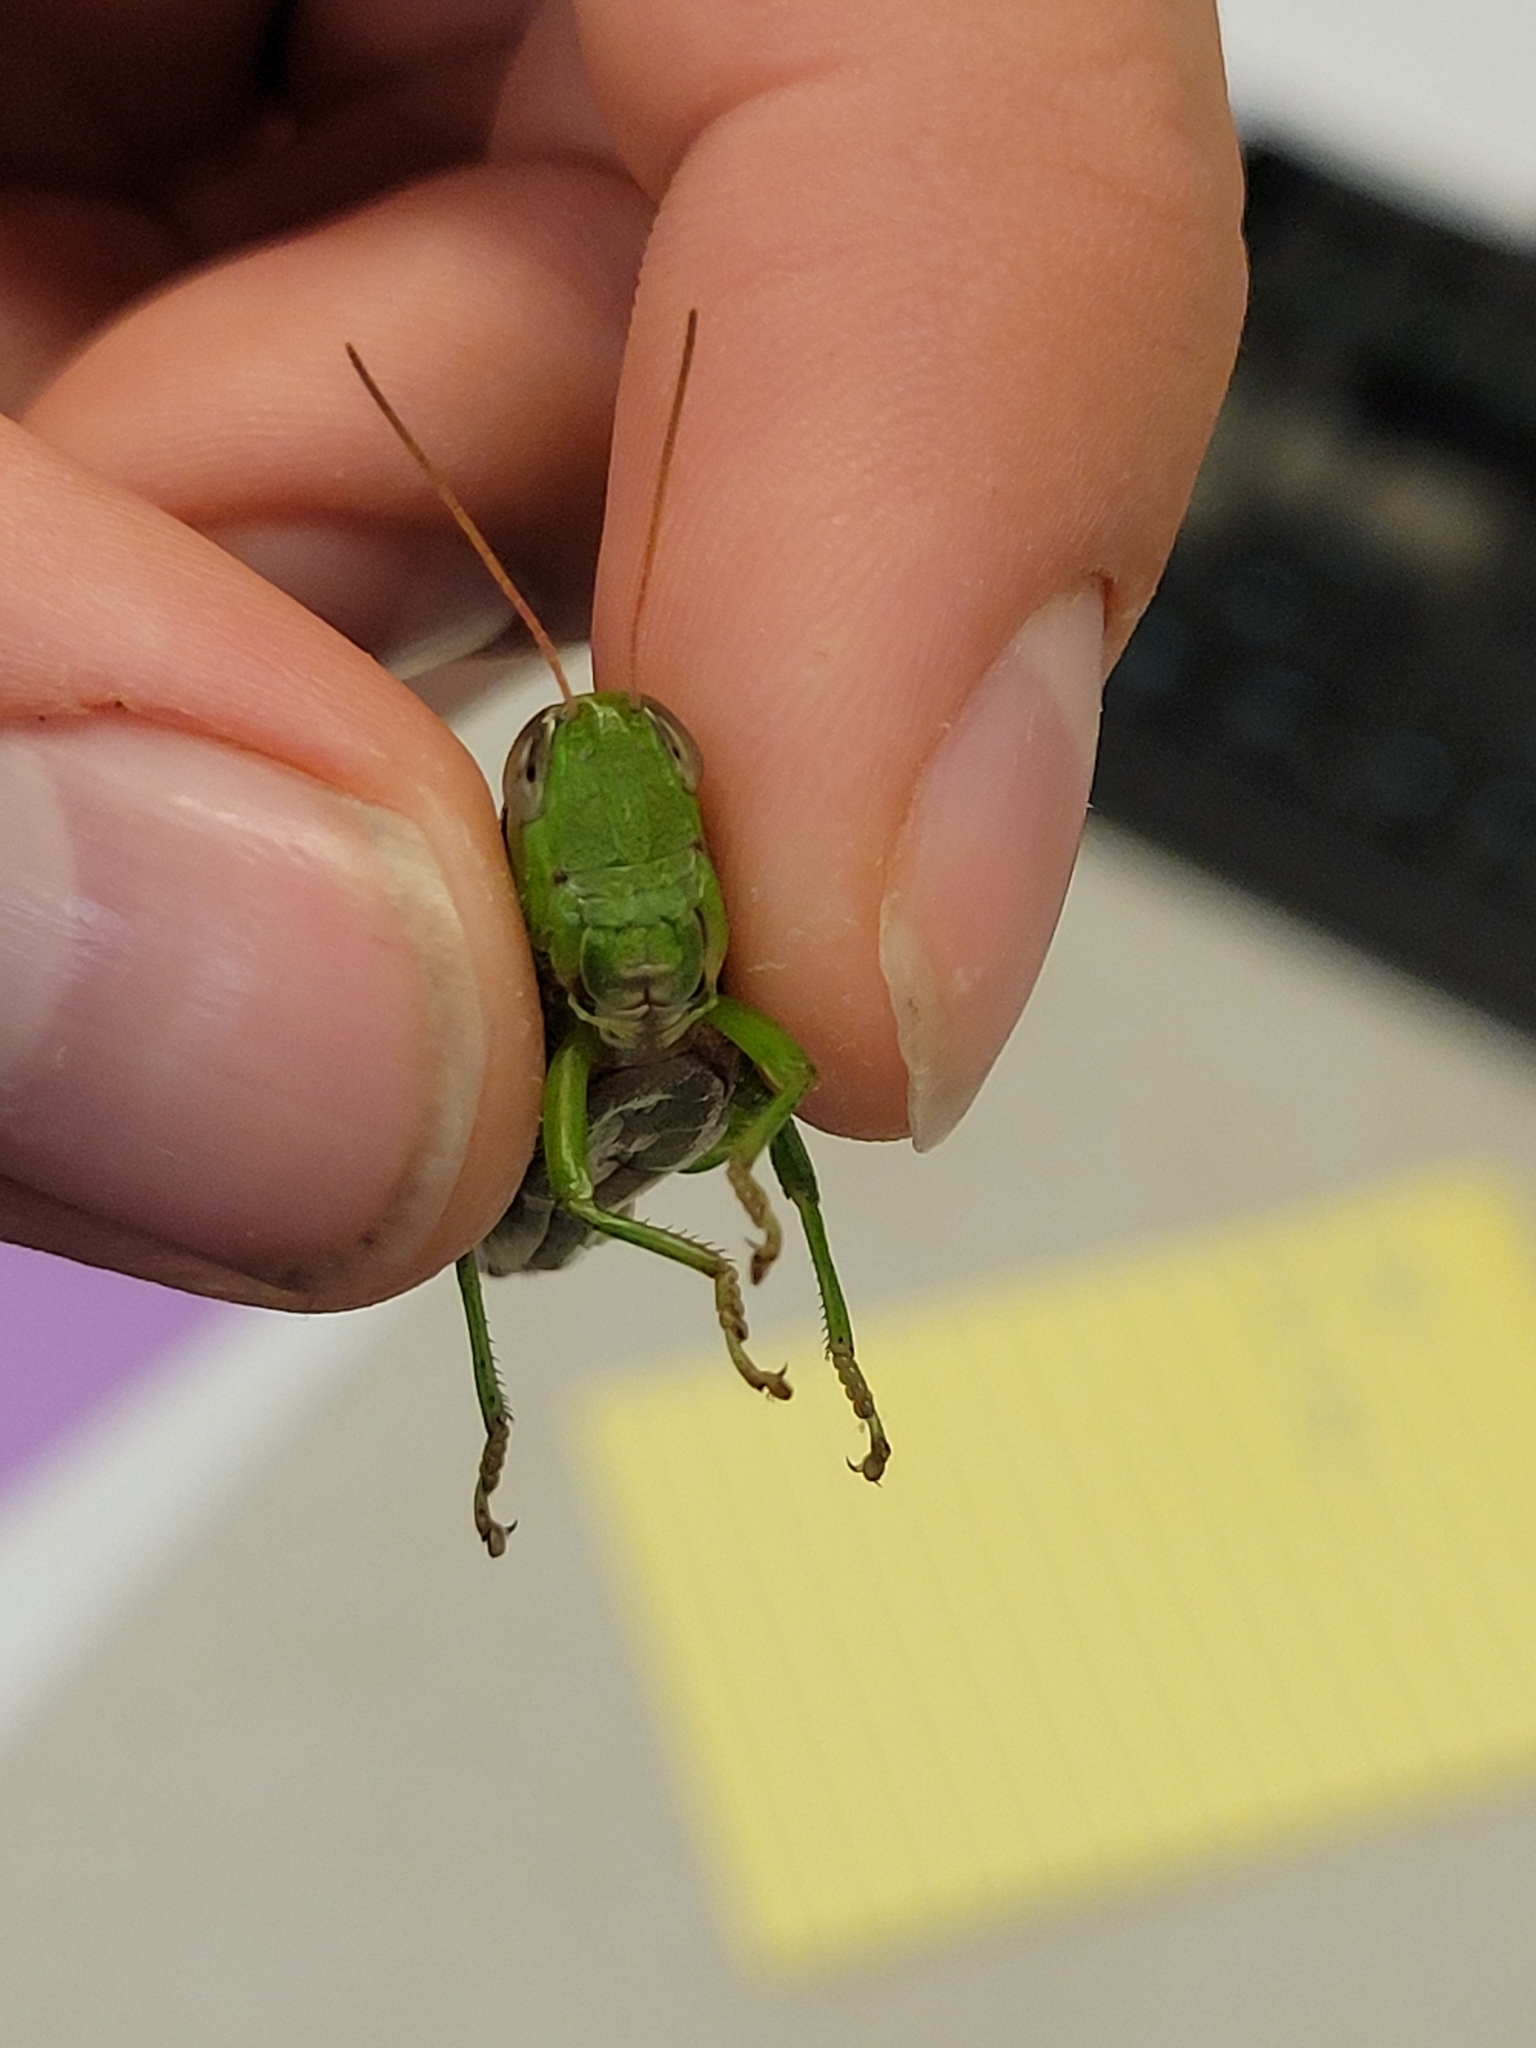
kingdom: Animalia
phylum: Arthropoda
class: Insecta
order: Orthoptera
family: Acrididae
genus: Oxya
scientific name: Oxya velox
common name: Rice grasshopper
